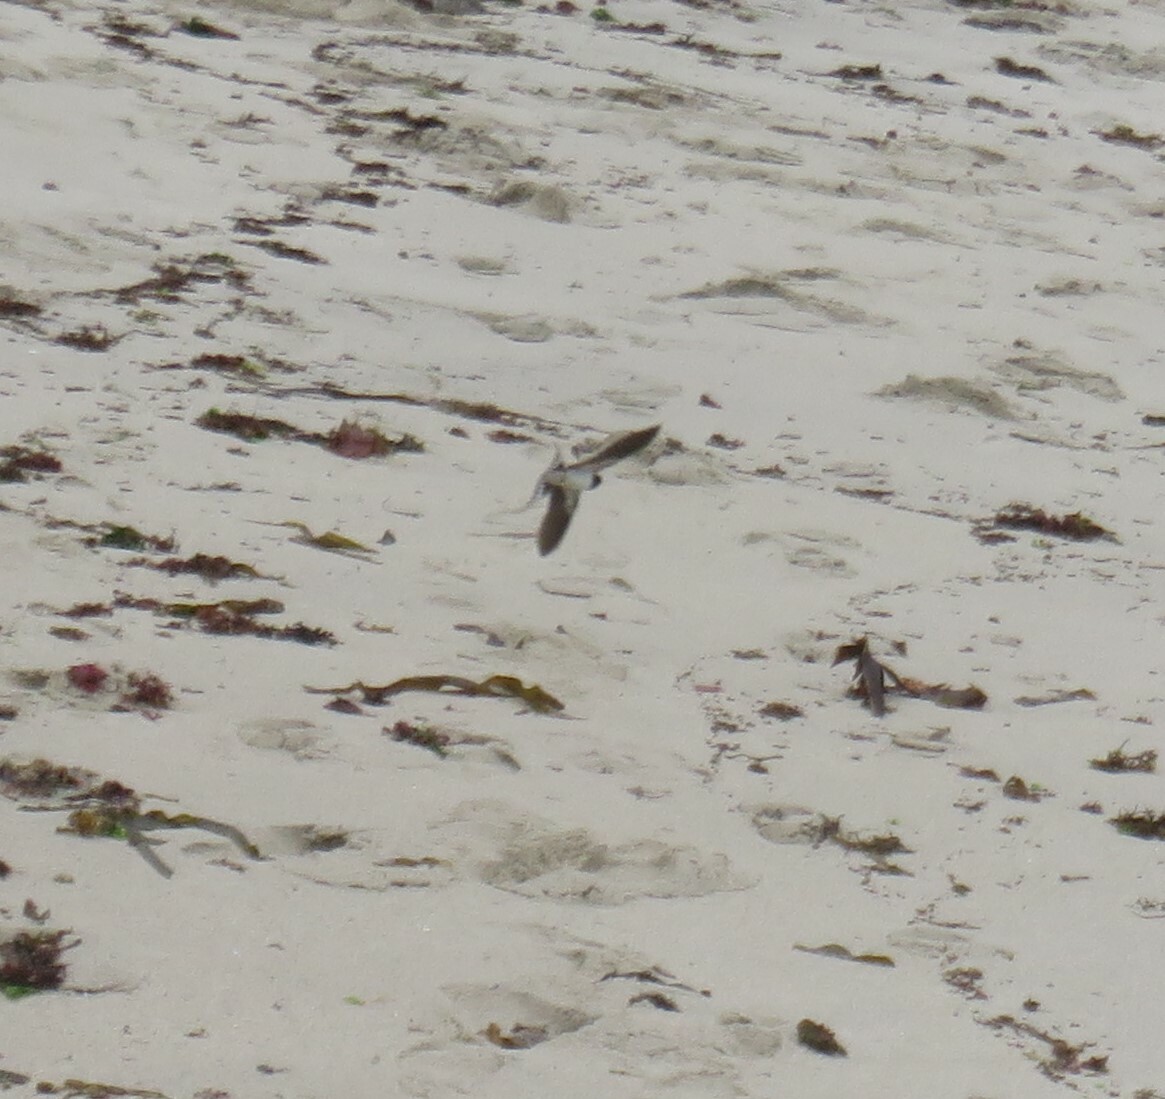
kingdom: Animalia
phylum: Chordata
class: Aves
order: Passeriformes
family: Hirundinidae
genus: Hirundo
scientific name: Hirundo rustica
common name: Barn swallow
